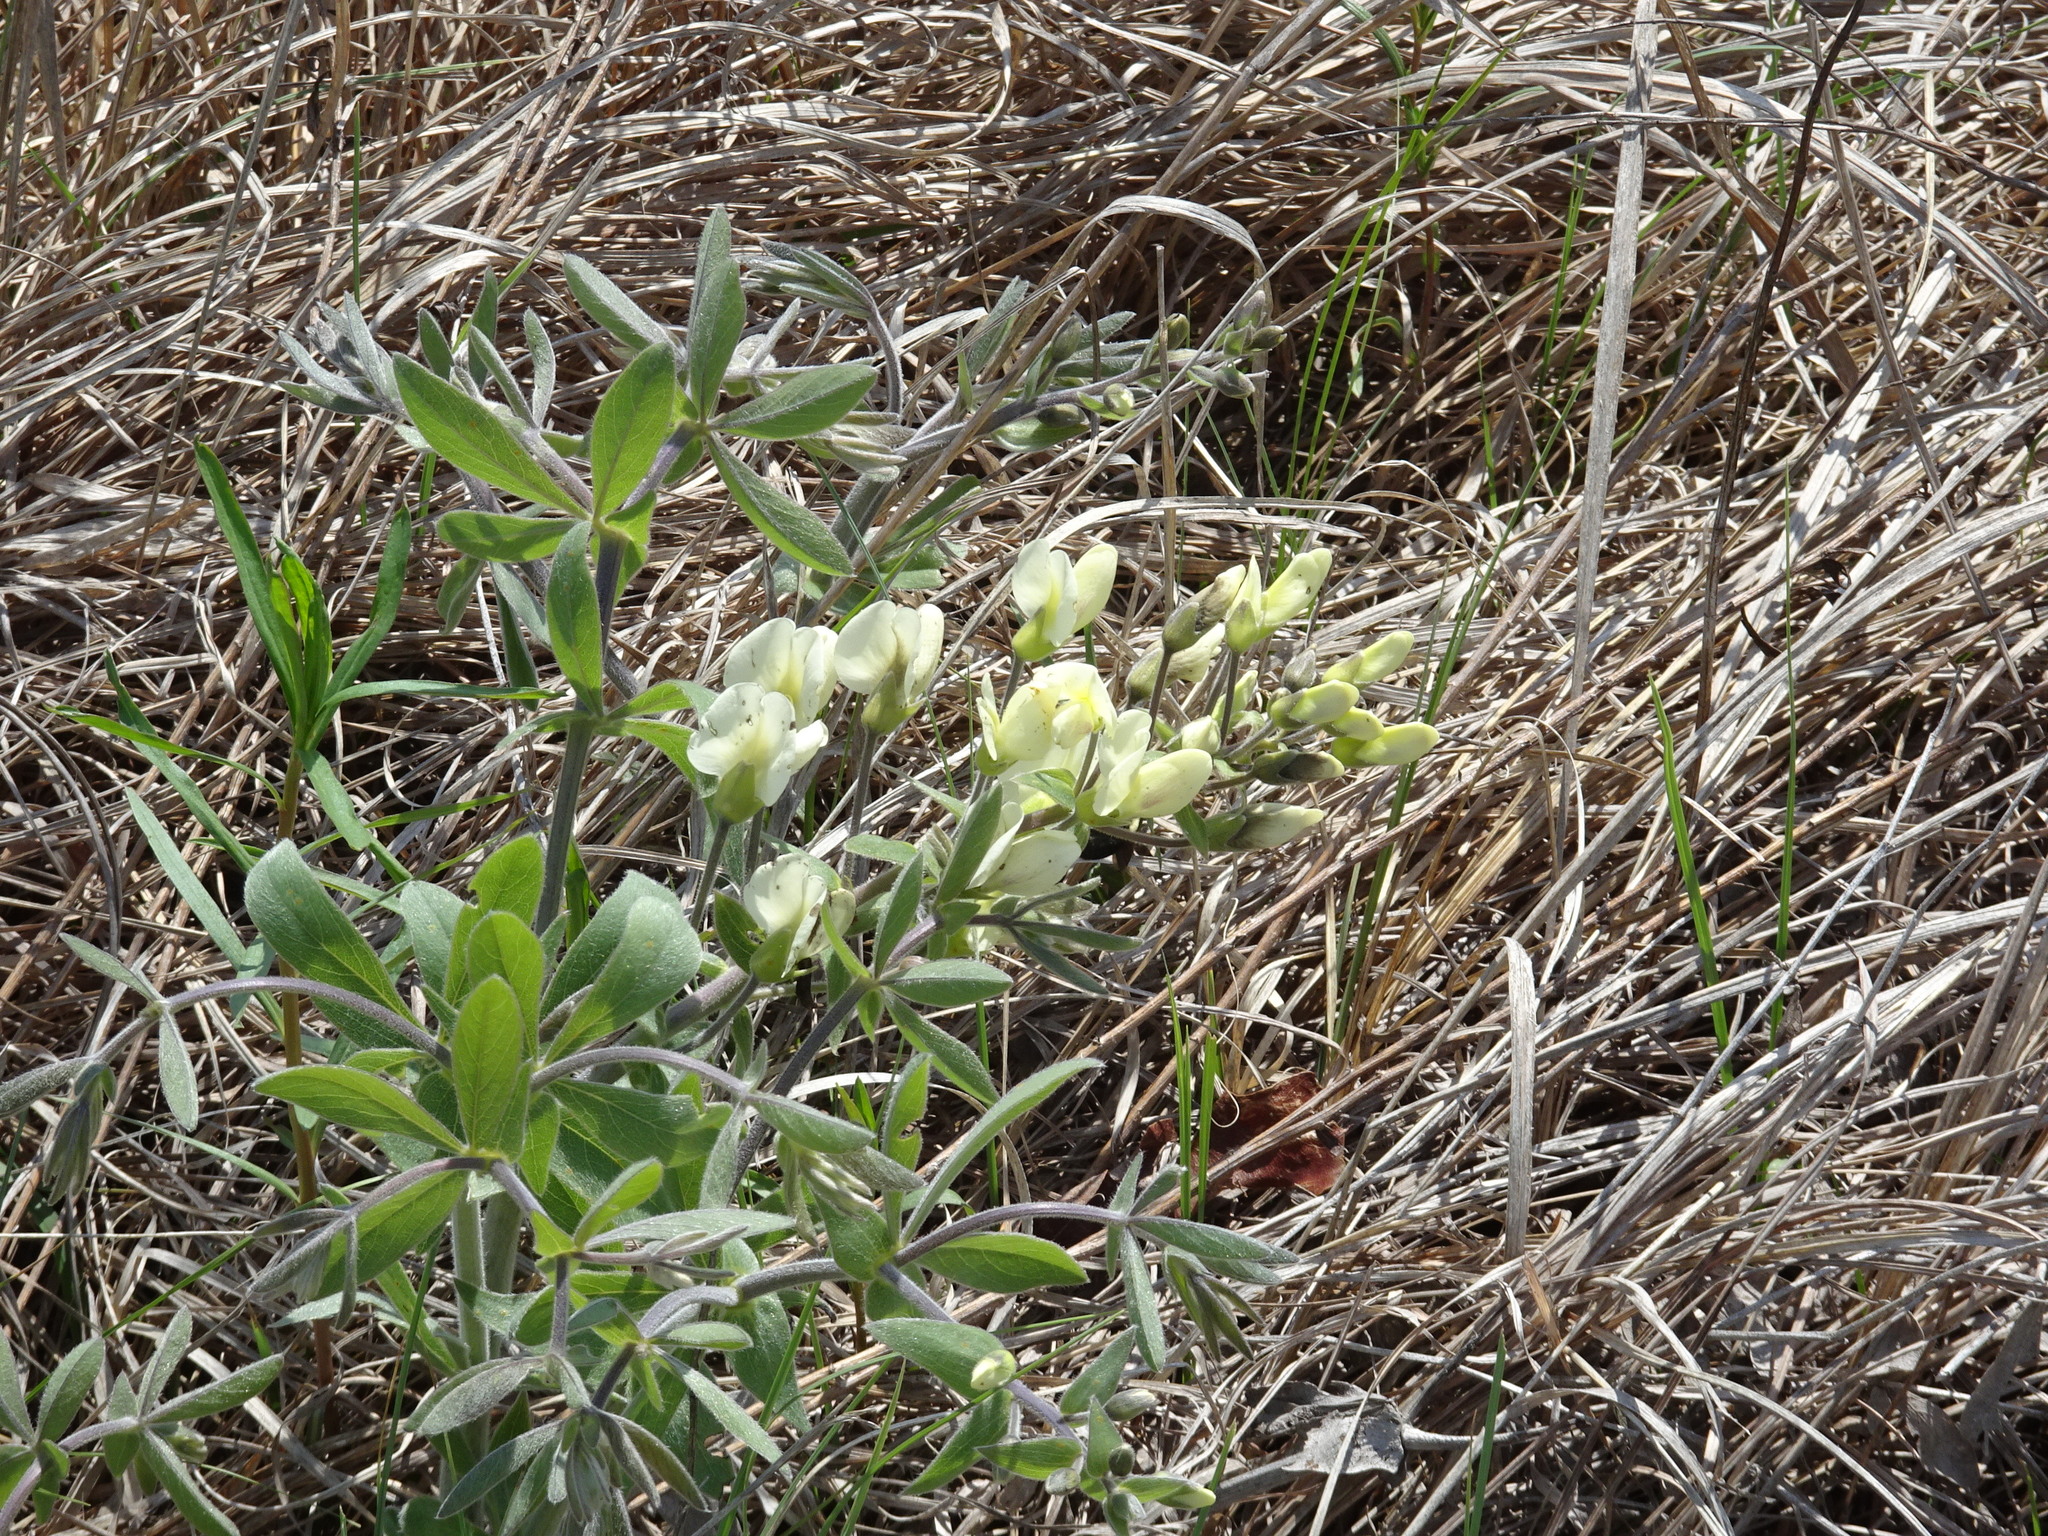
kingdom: Plantae
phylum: Tracheophyta
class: Magnoliopsida
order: Fabales
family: Fabaceae
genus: Baptisia
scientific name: Baptisia bracteata
